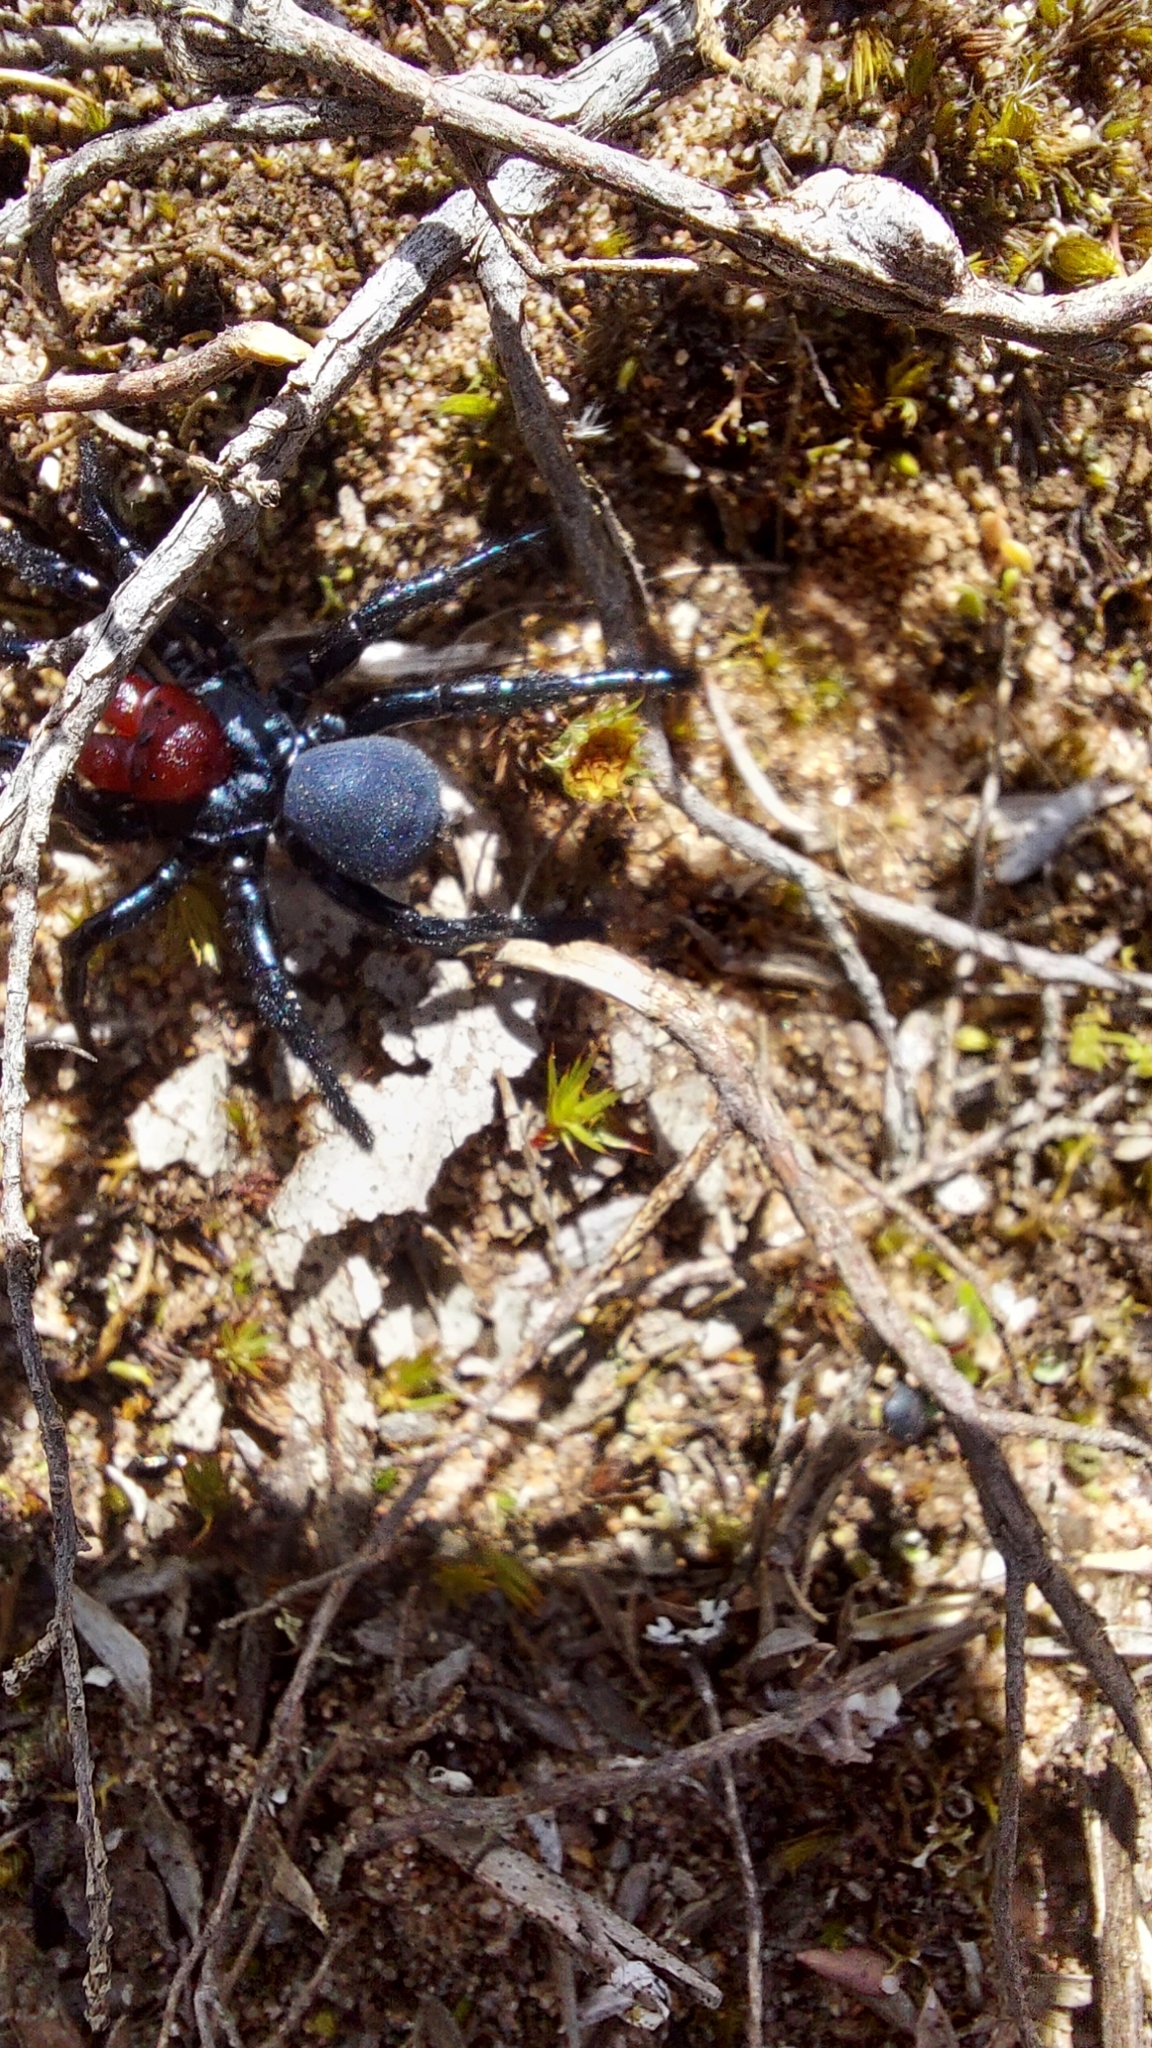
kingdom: Animalia
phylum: Arthropoda
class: Arachnida
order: Araneae
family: Actinopodidae
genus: Missulena
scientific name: Missulena occatoria
